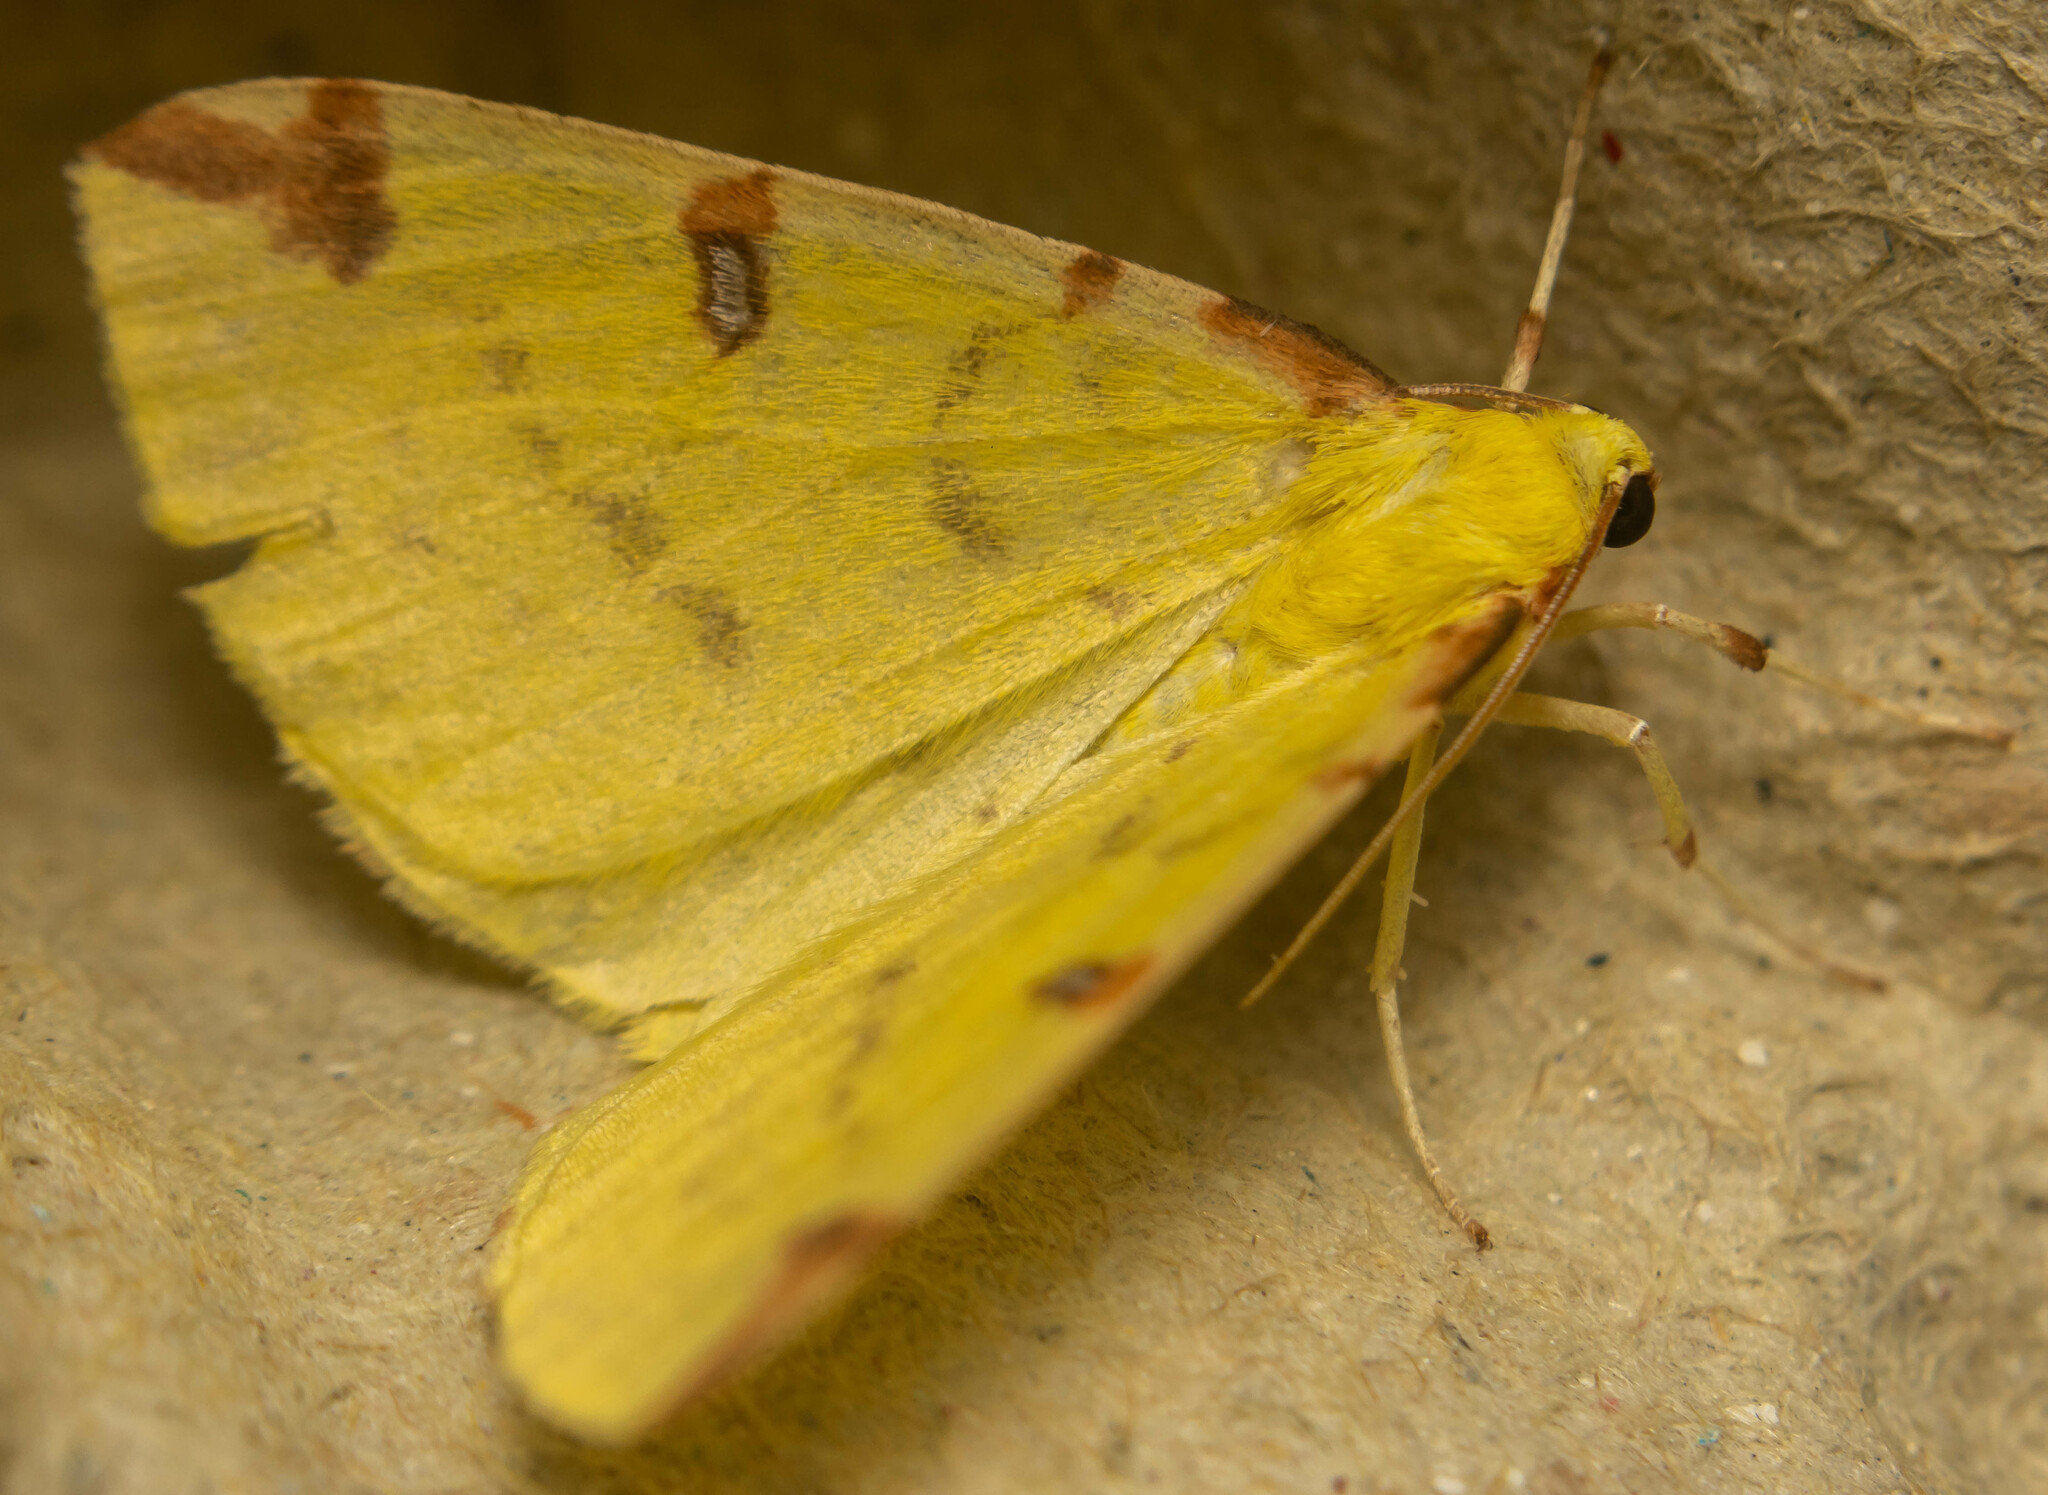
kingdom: Animalia
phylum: Arthropoda
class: Insecta
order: Lepidoptera
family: Geometridae
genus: Opisthograptis
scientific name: Opisthograptis luteolata
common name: Brimstone moth
